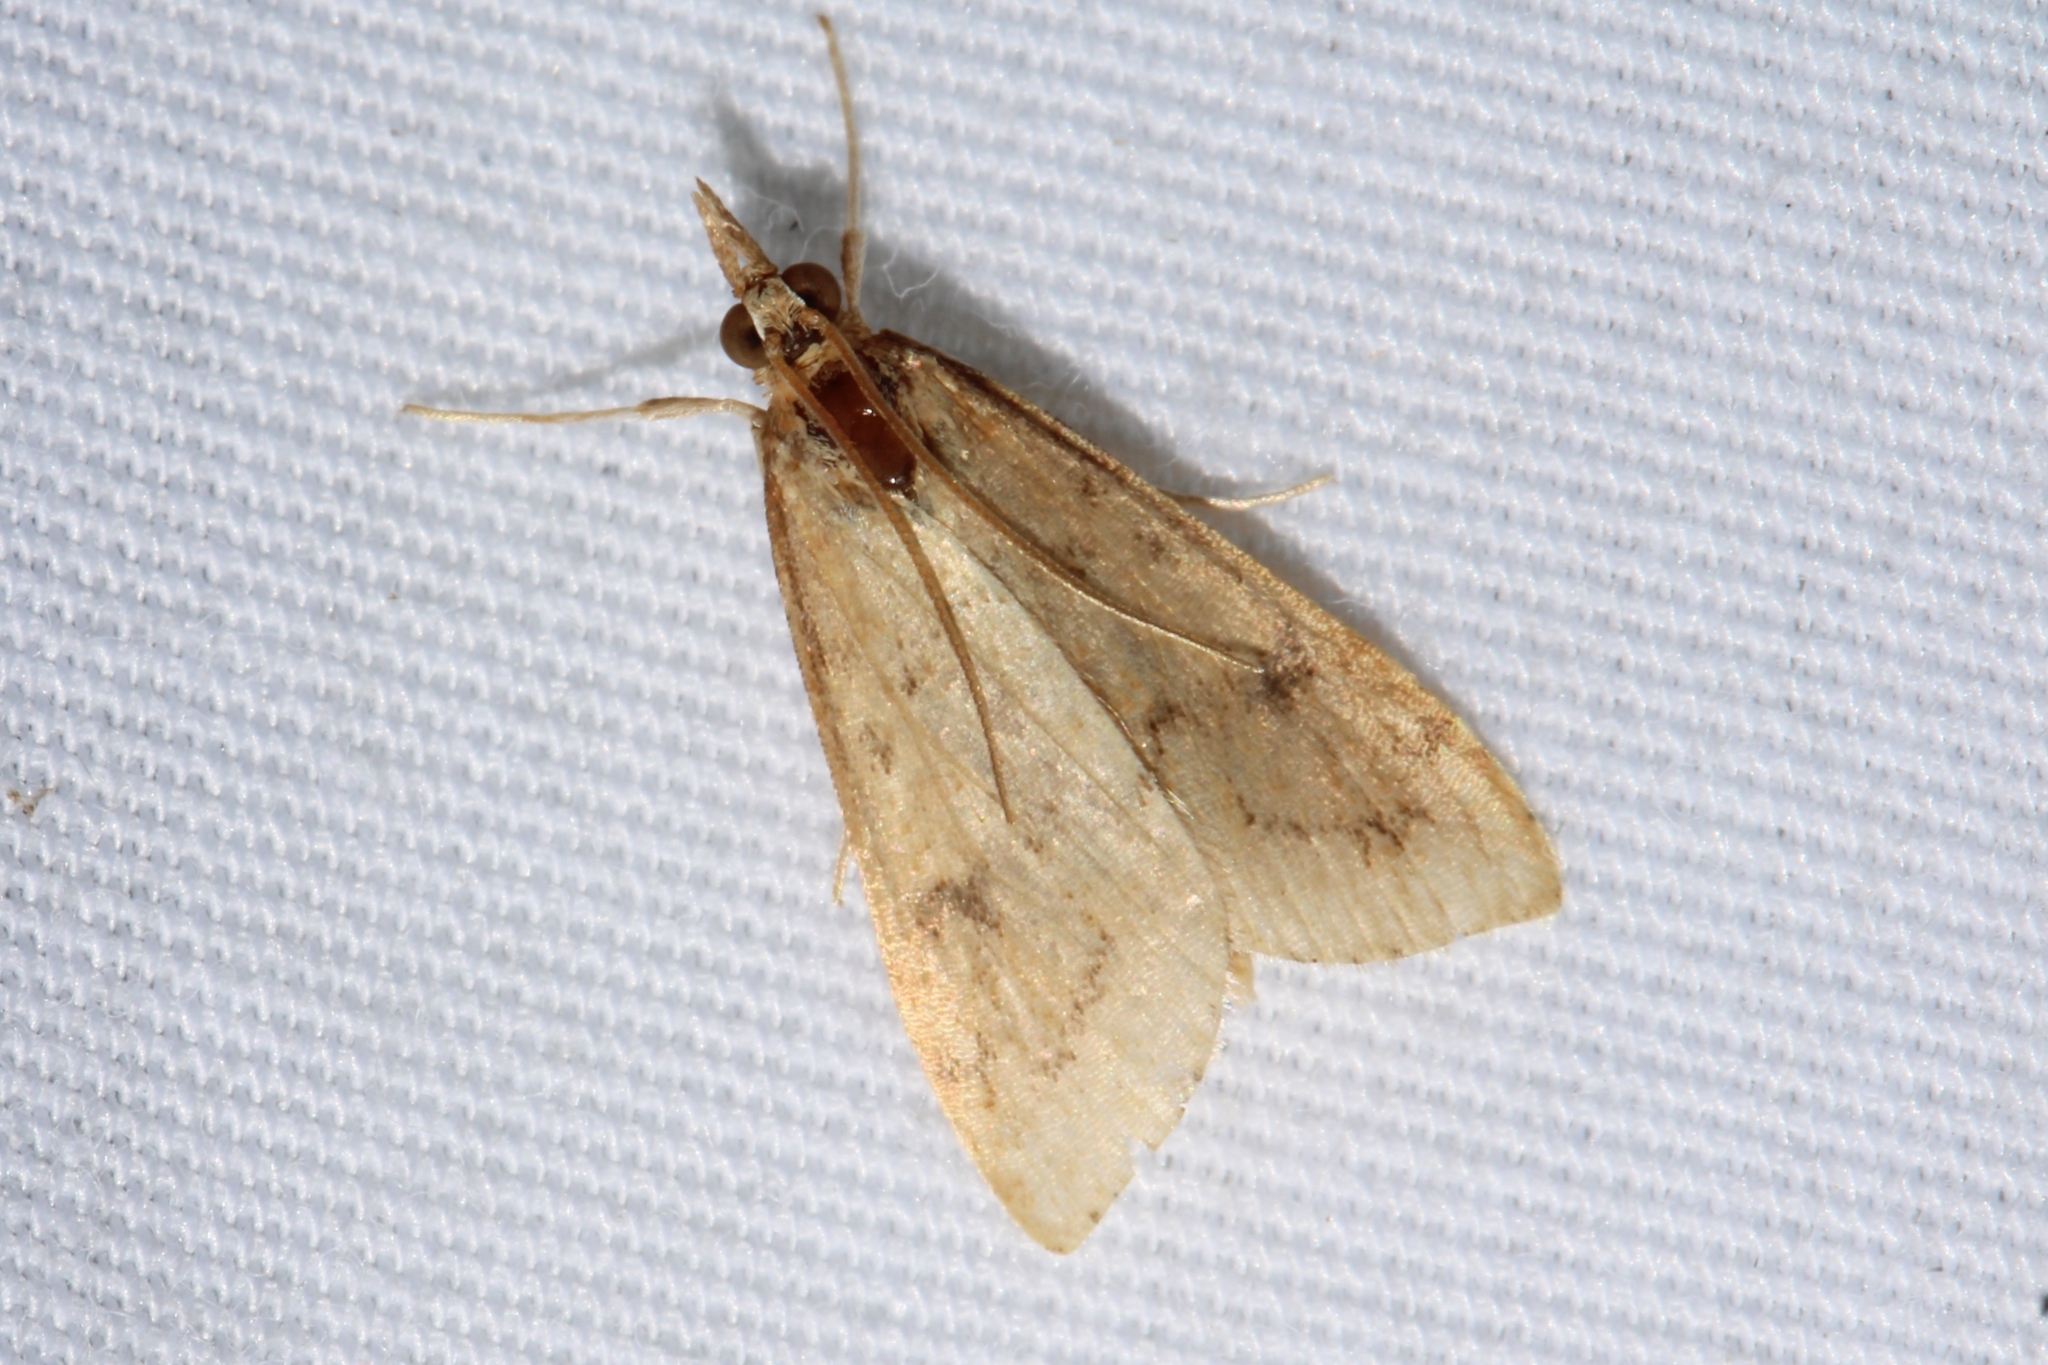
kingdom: Animalia
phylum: Arthropoda
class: Insecta
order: Lepidoptera
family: Crambidae
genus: Udea
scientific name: Udea rubigalis
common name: Celery leaftier moth
